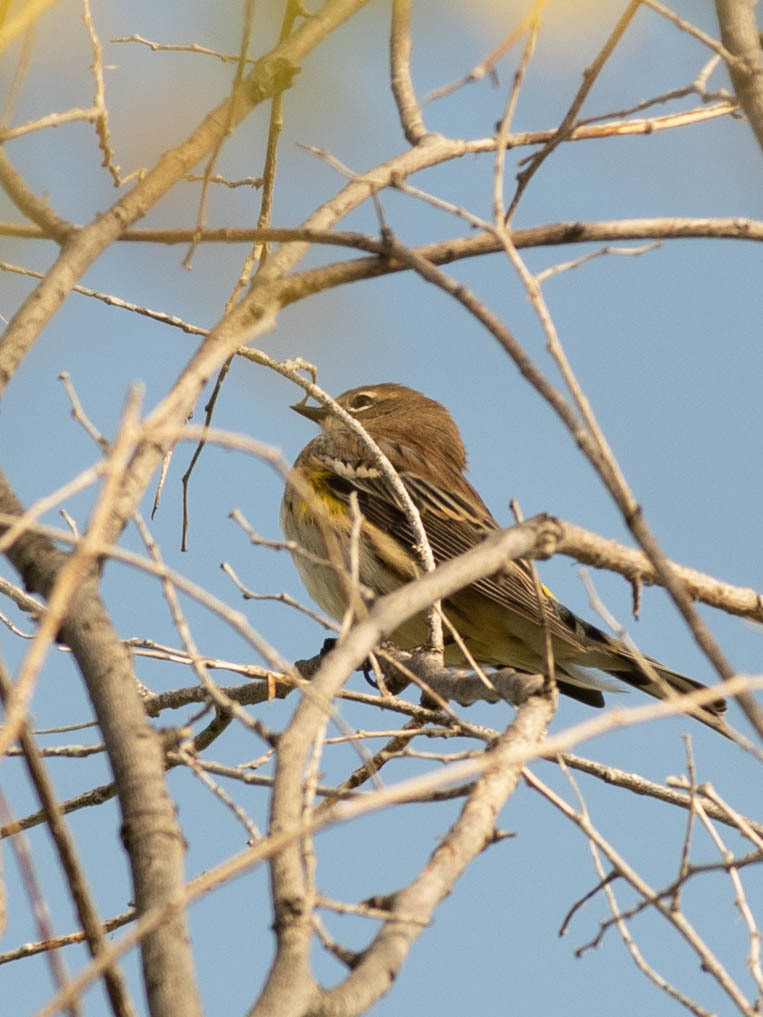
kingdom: Animalia
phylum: Chordata
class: Aves
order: Passeriformes
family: Parulidae
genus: Setophaga
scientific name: Setophaga coronata
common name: Myrtle warbler
